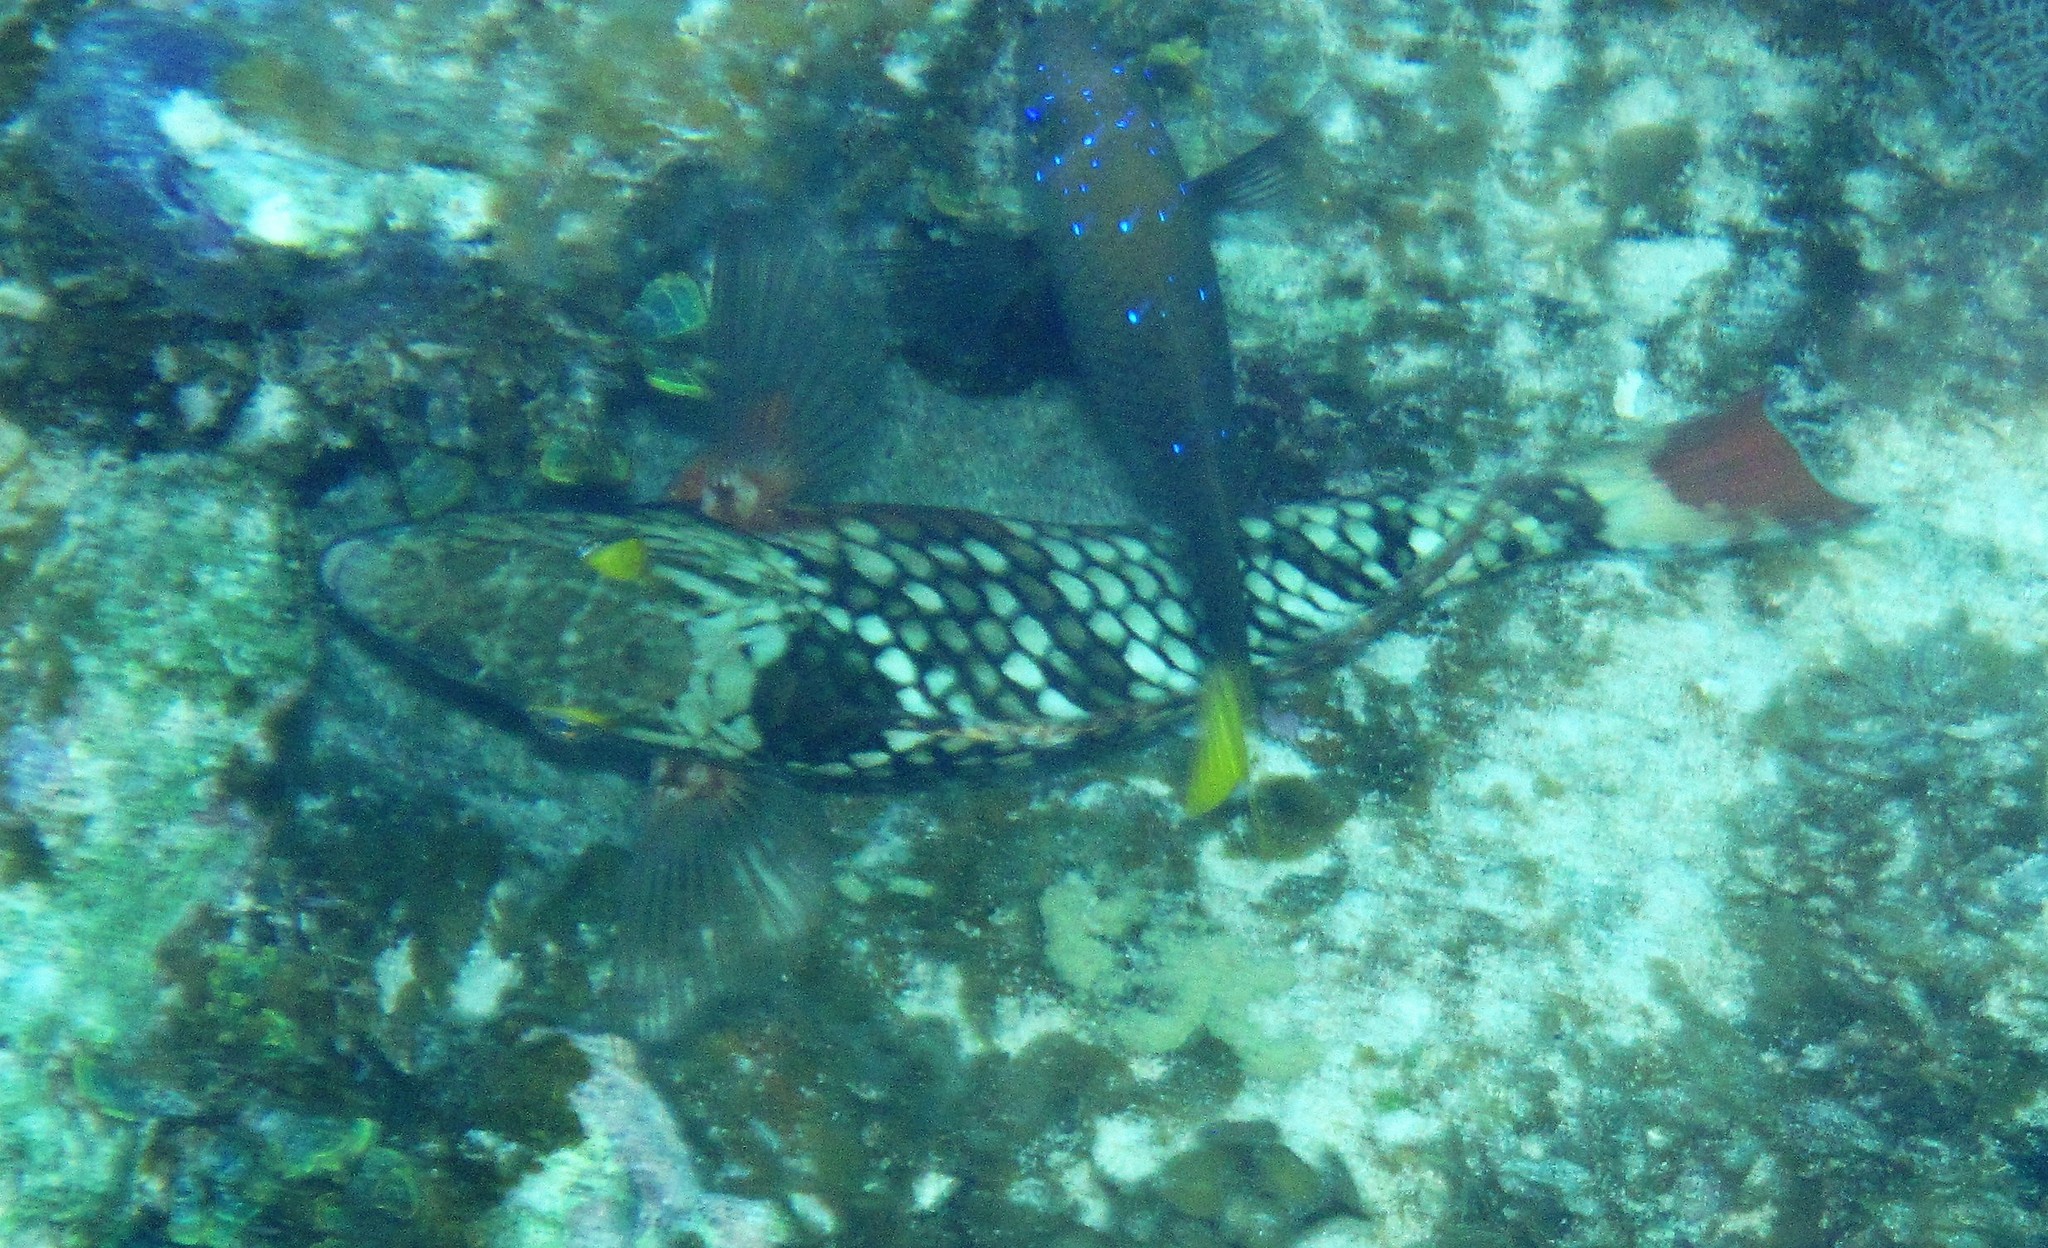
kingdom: Animalia
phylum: Chordata
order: Perciformes
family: Scaridae
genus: Sparisoma
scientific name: Sparisoma viride
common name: Stoplight parrotfish
